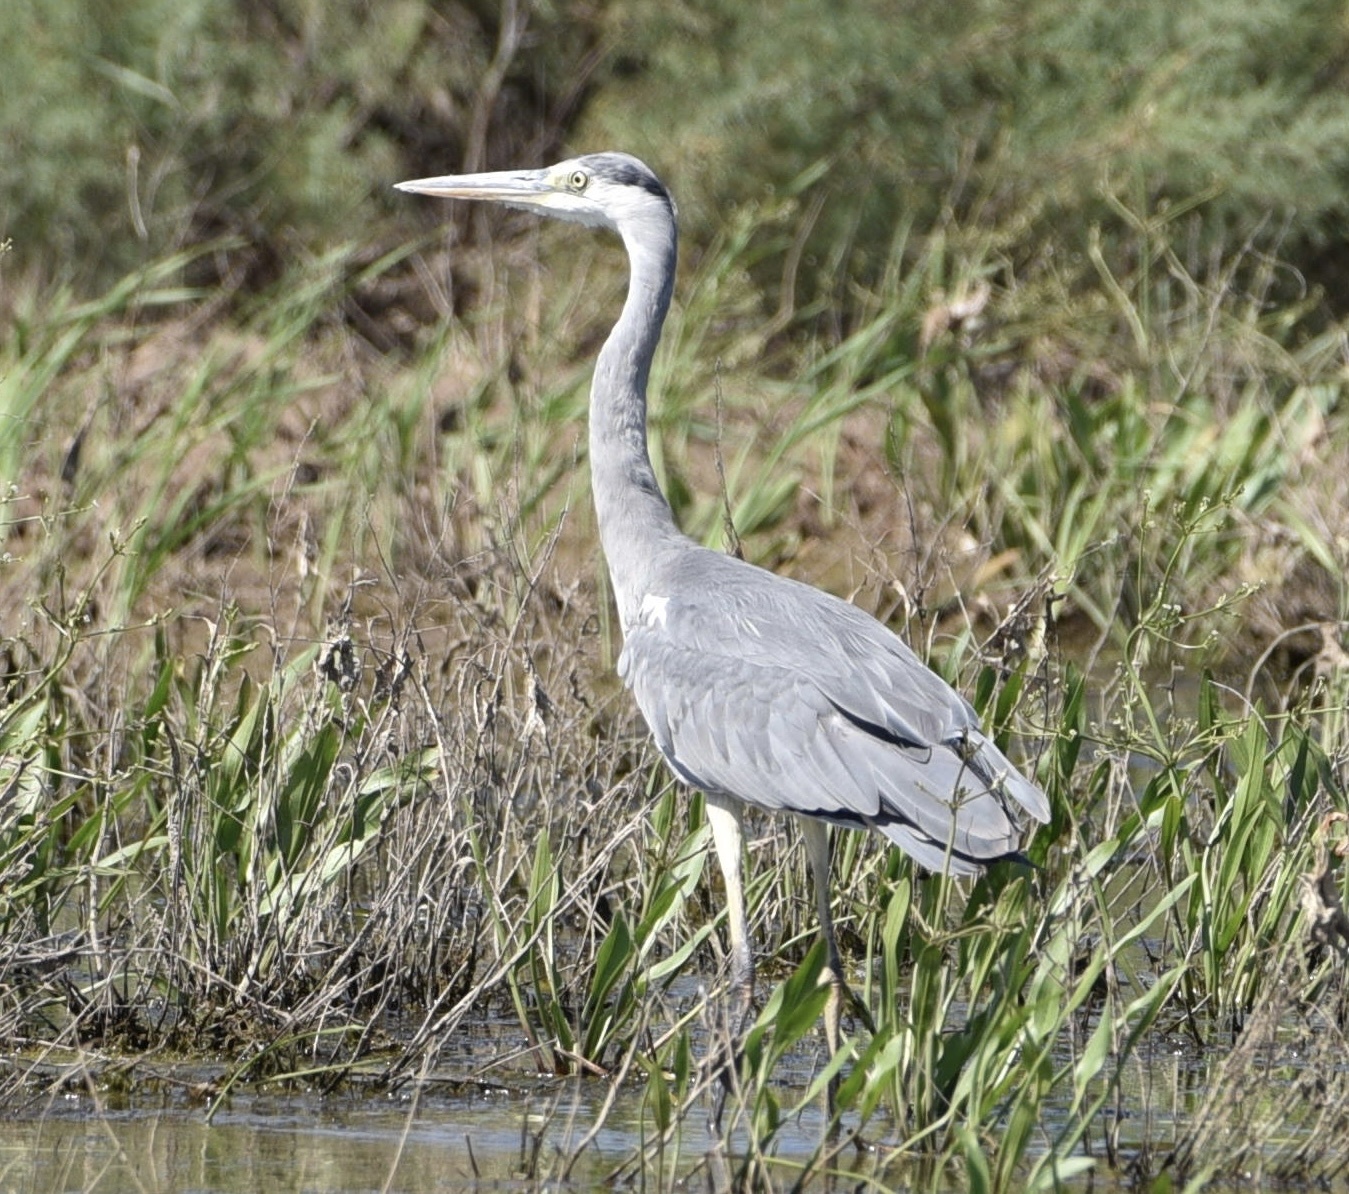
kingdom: Animalia
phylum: Chordata
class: Aves
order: Pelecaniformes
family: Ardeidae
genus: Ardea
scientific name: Ardea cinerea
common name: Grey heron
